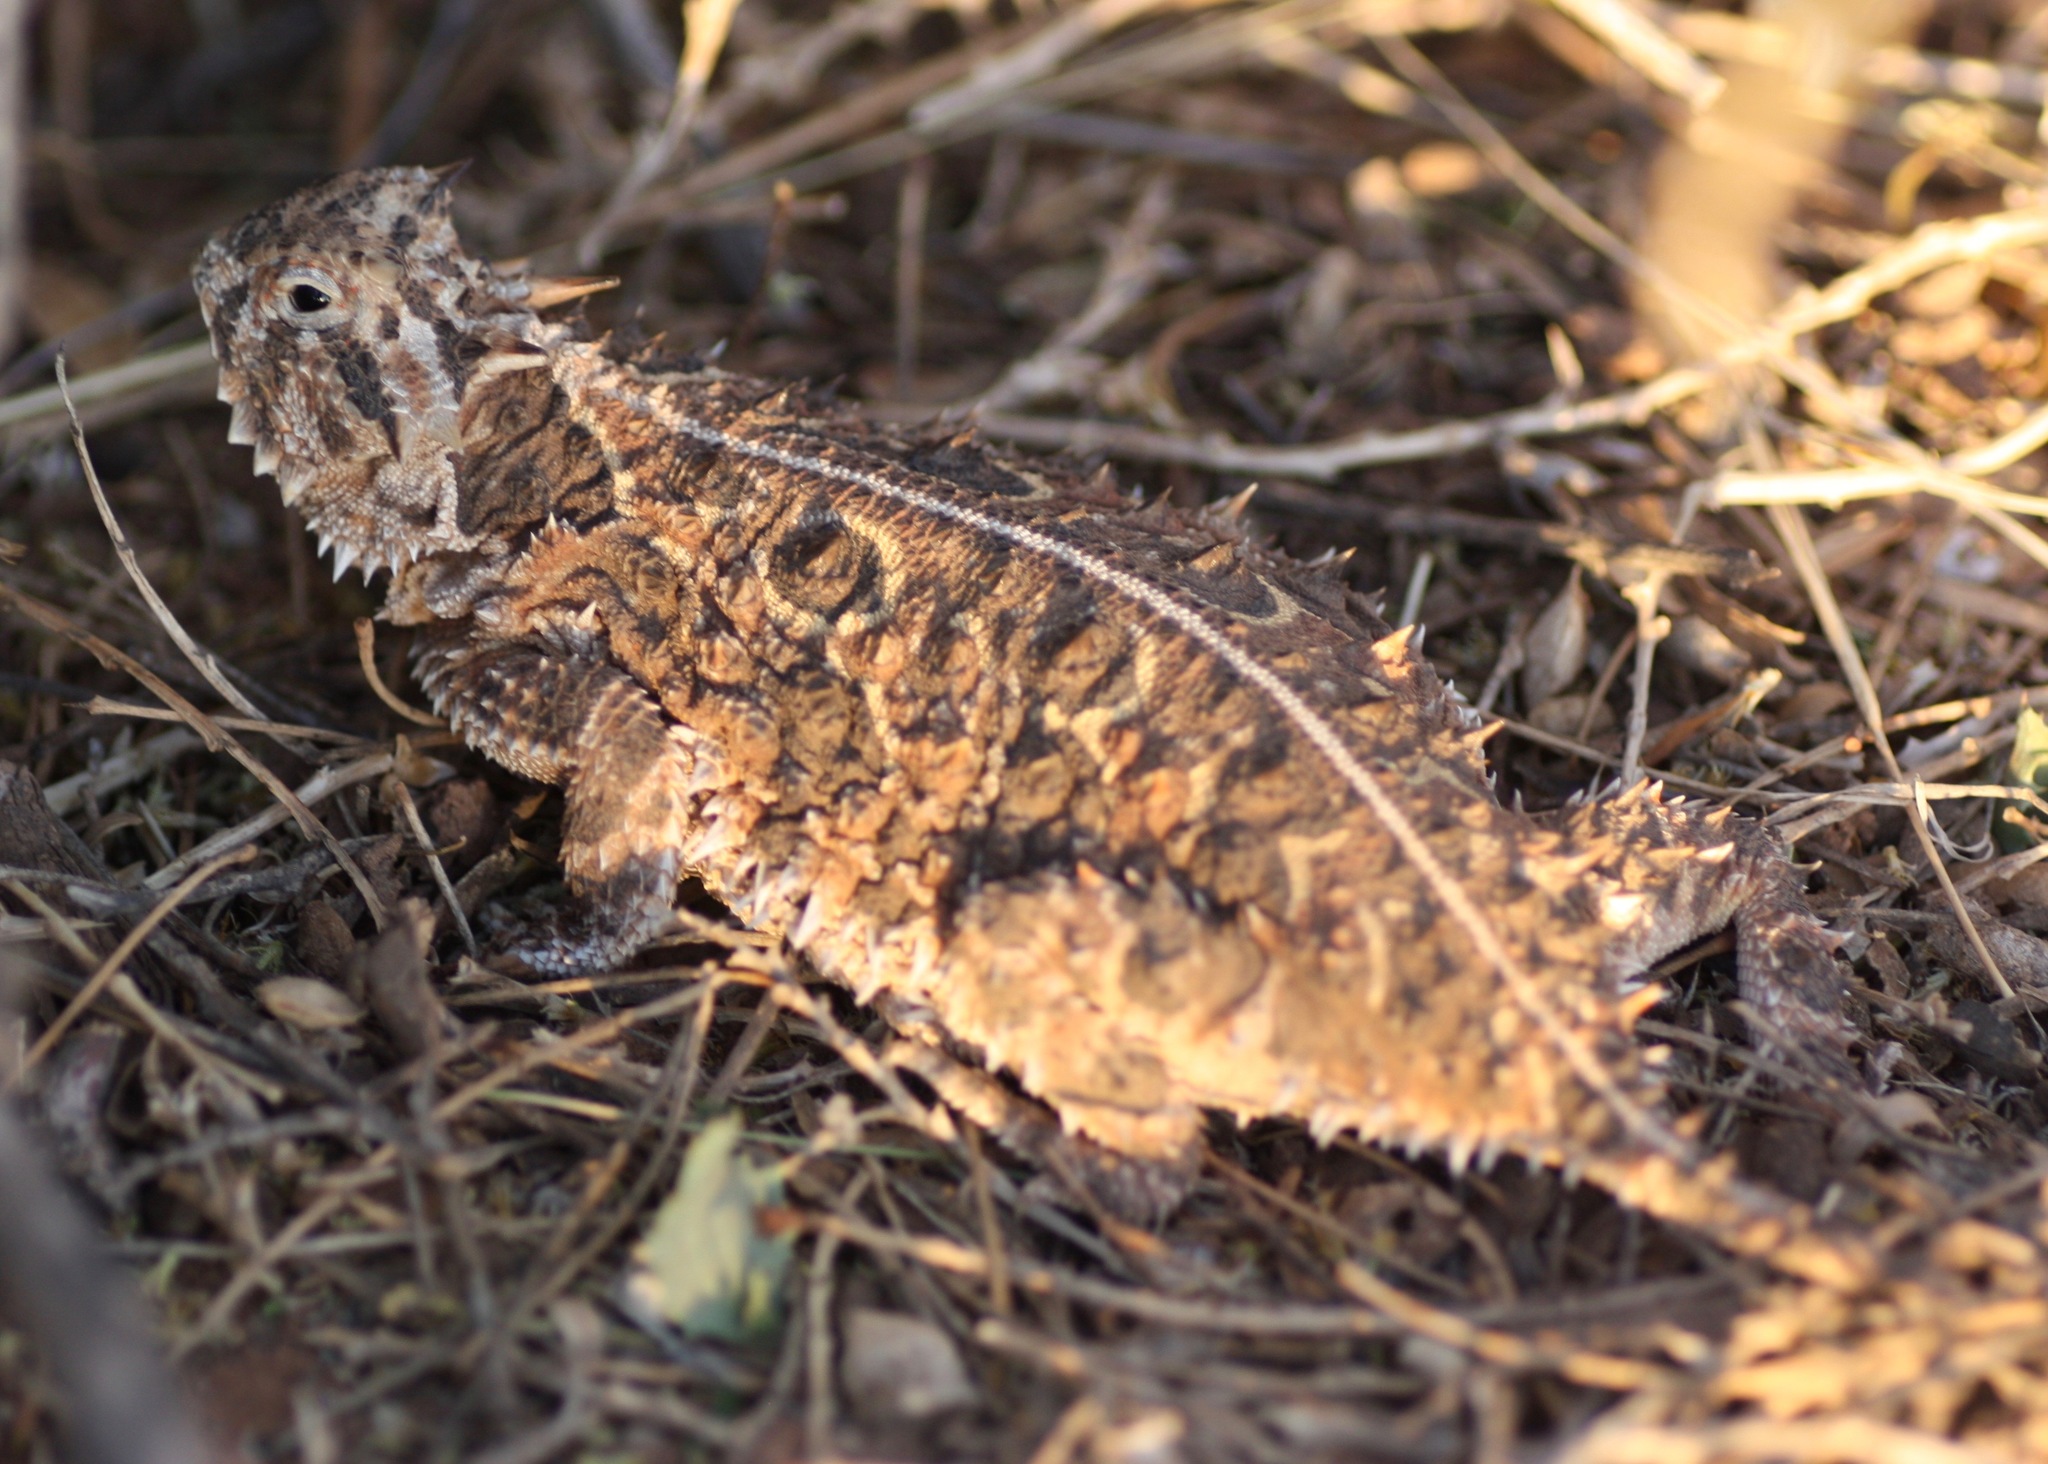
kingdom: Animalia
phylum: Chordata
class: Squamata
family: Phrynosomatidae
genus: Phrynosoma
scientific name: Phrynosoma cornutum
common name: Texas horned lizard
